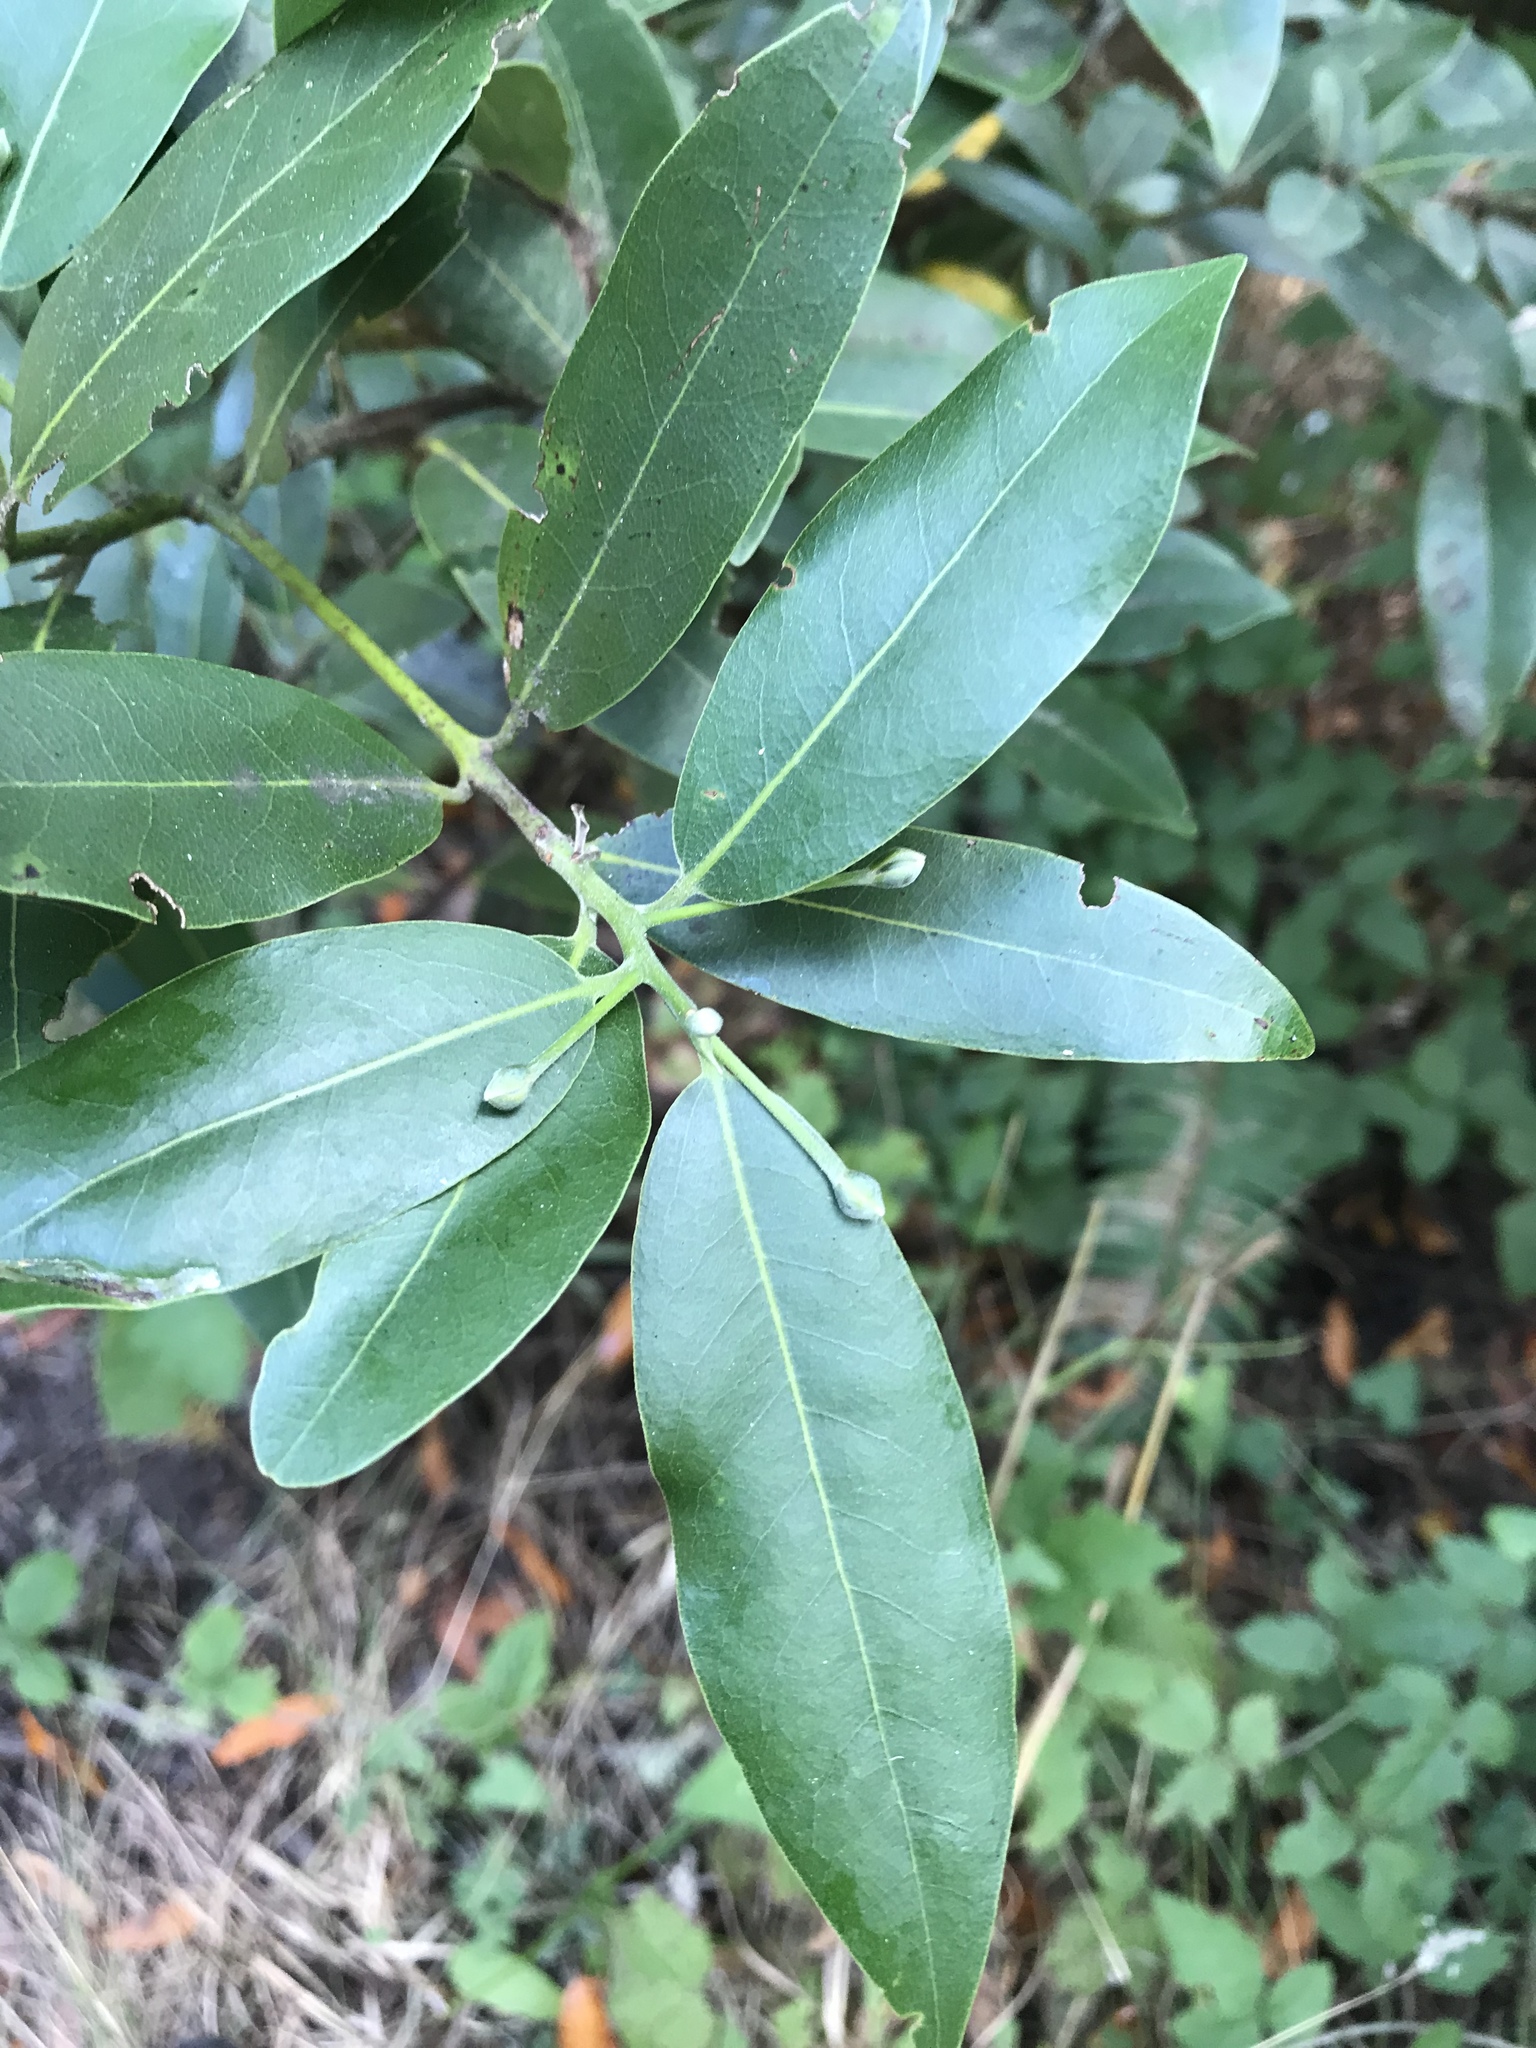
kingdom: Plantae
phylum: Tracheophyta
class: Magnoliopsida
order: Laurales
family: Lauraceae
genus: Umbellularia
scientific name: Umbellularia californica
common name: California bay
